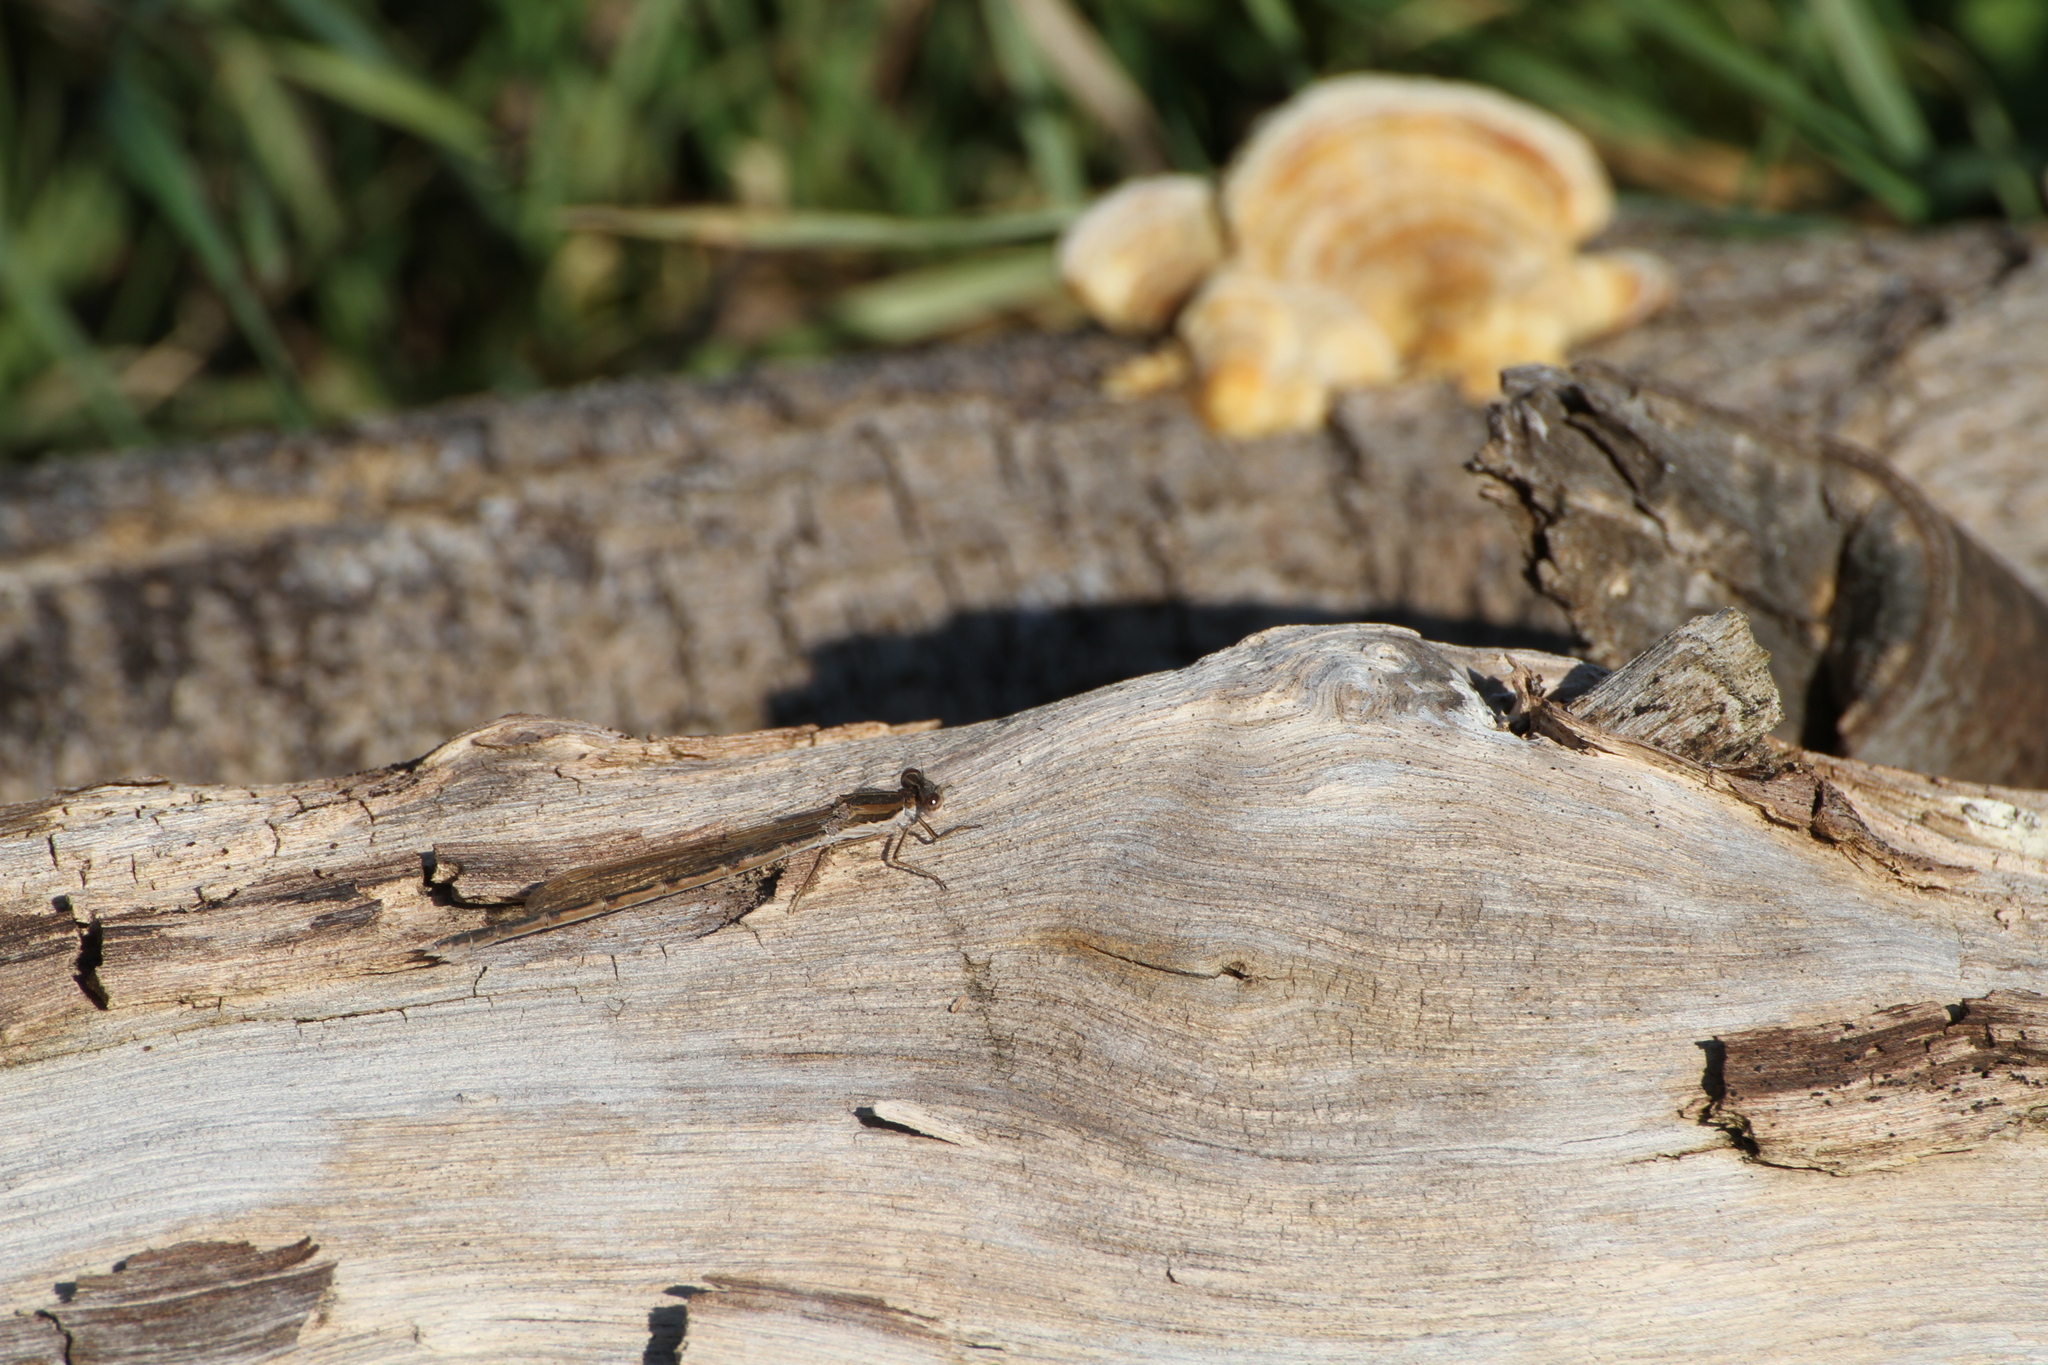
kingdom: Animalia
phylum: Arthropoda
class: Insecta
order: Odonata
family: Lestidae
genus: Sympecma
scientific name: Sympecma fusca
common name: Common winter damsel
